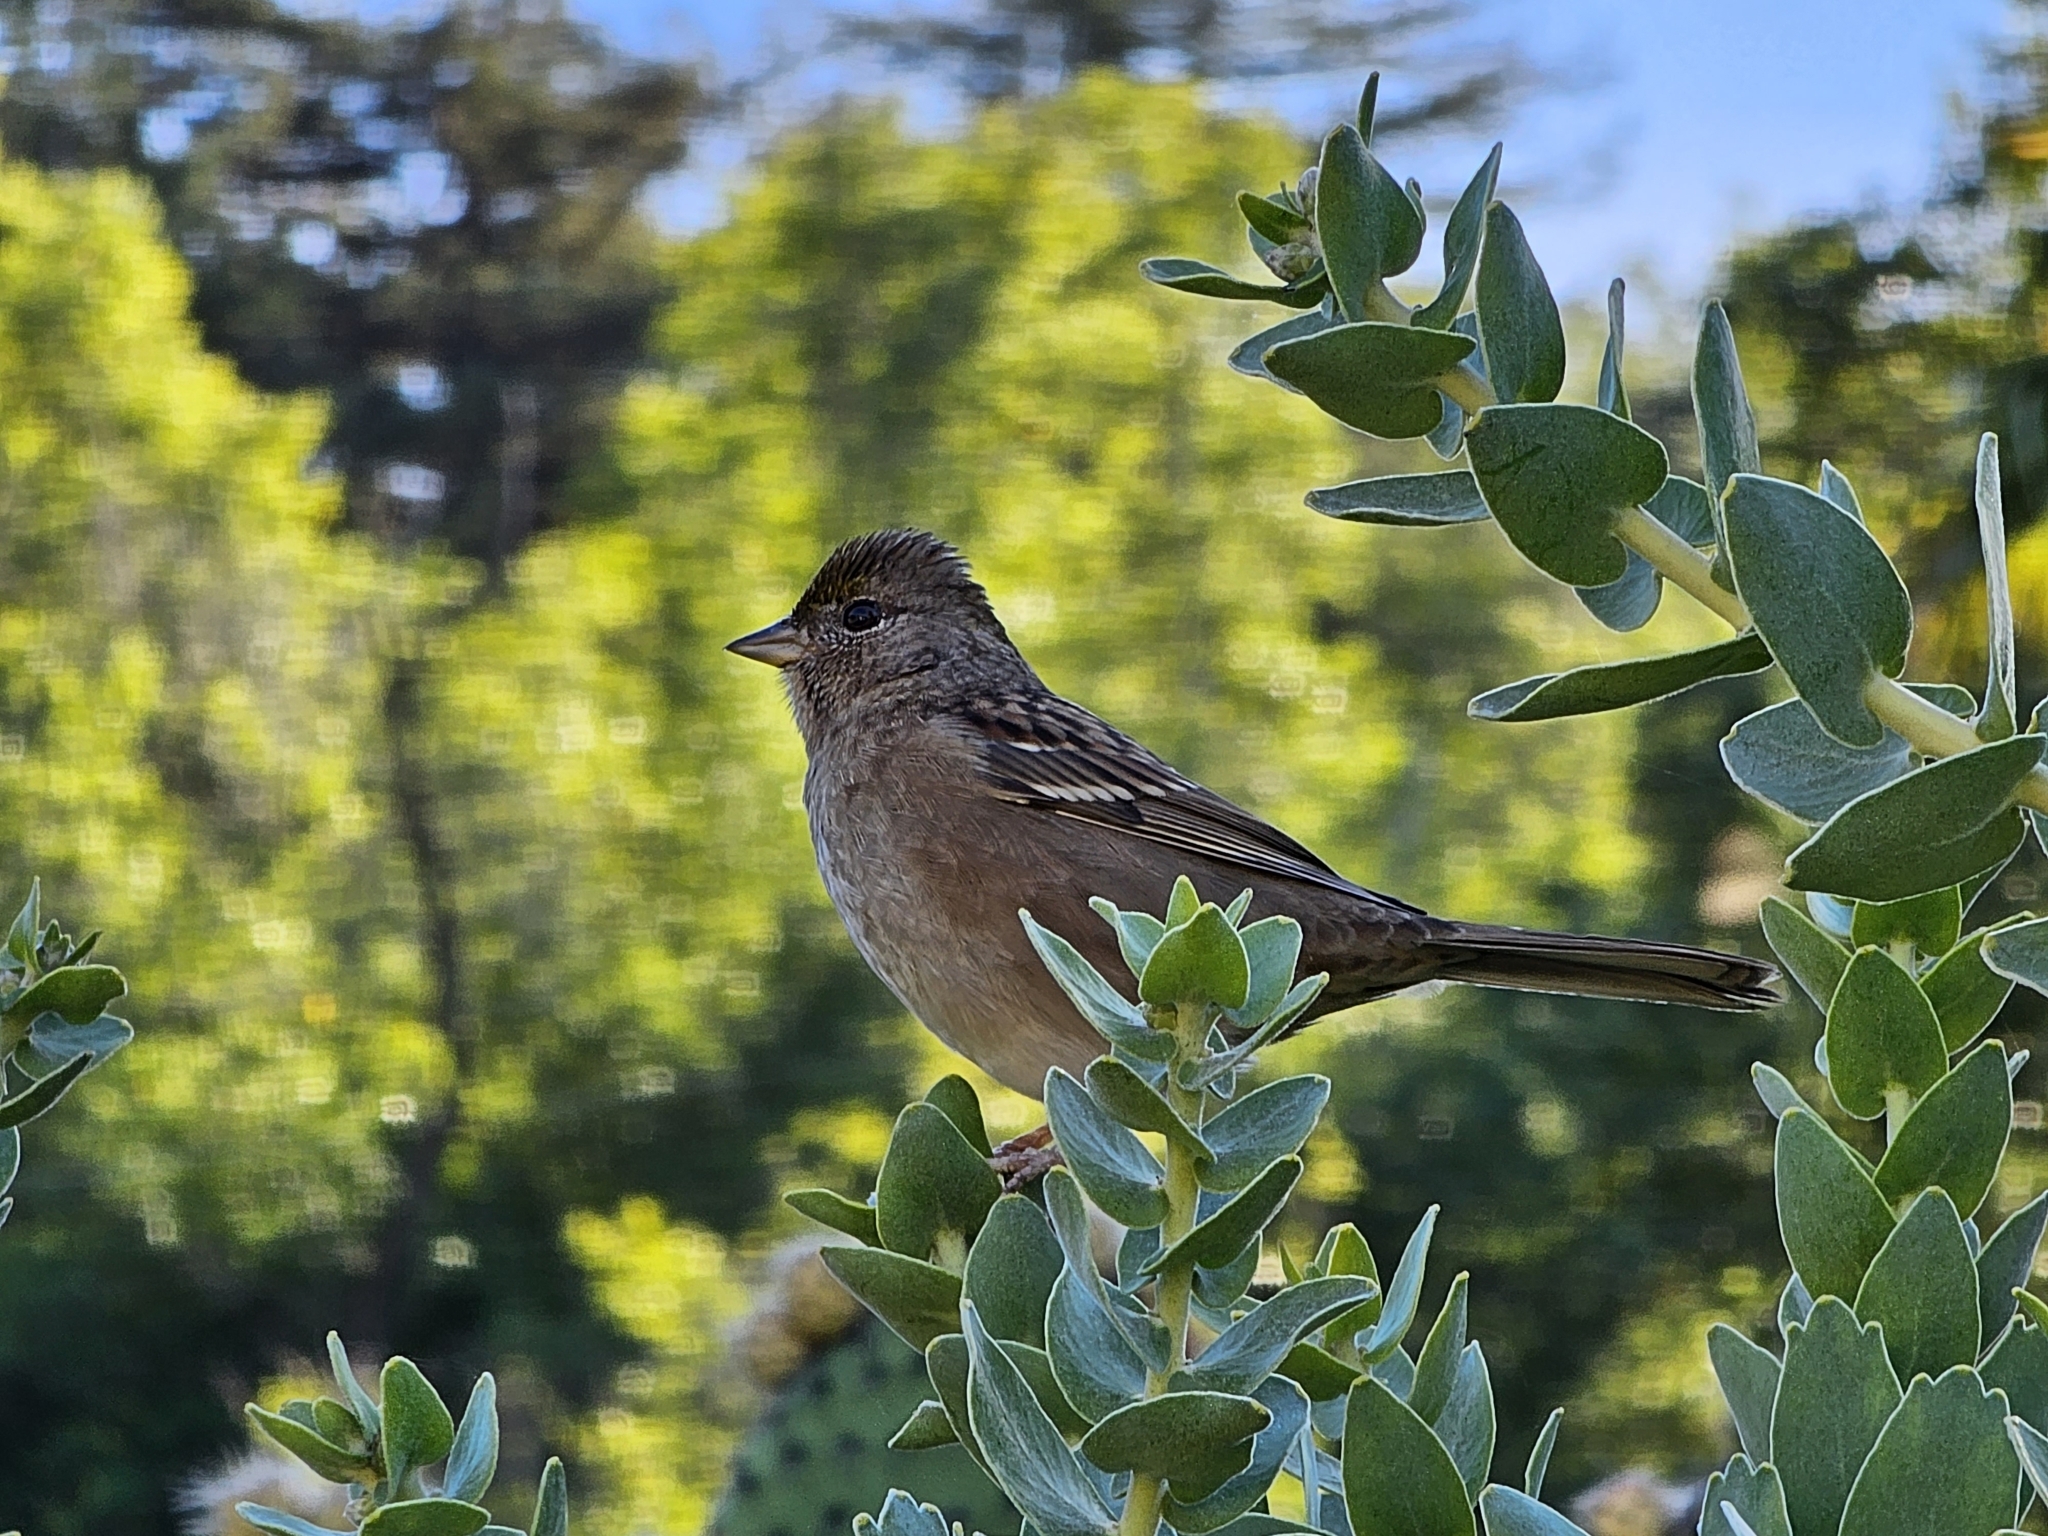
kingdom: Animalia
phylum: Chordata
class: Aves
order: Passeriformes
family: Passerellidae
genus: Zonotrichia
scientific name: Zonotrichia atricapilla
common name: Golden-crowned sparrow
